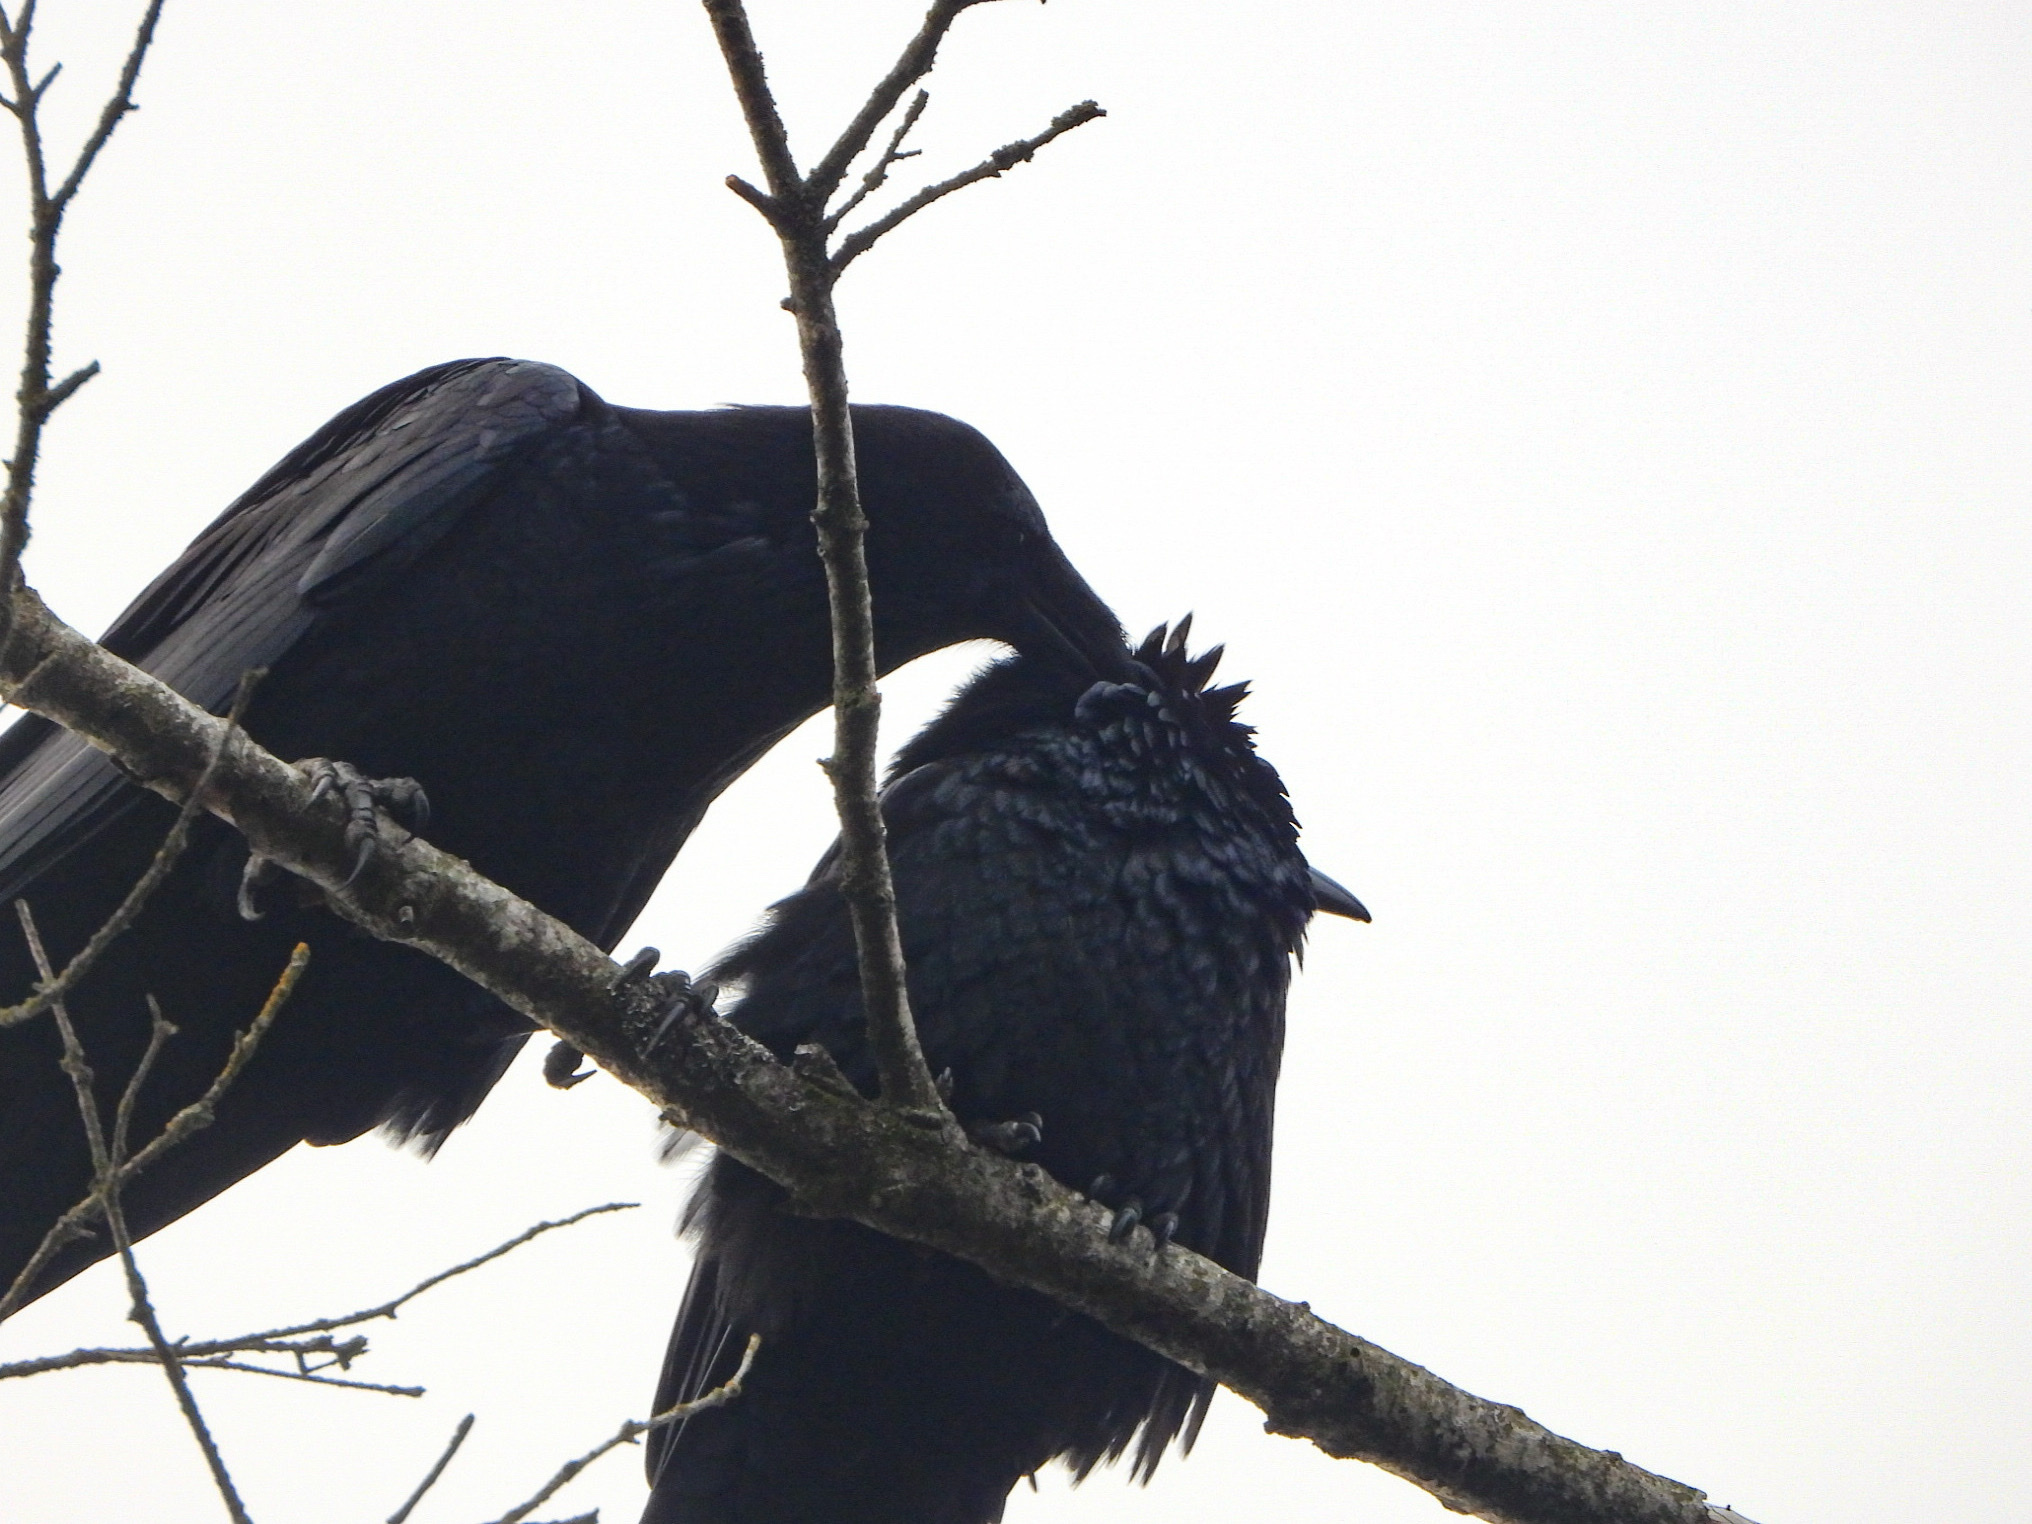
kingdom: Animalia
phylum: Chordata
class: Aves
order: Passeriformes
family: Corvidae
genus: Corvus
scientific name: Corvus corax
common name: Common raven
